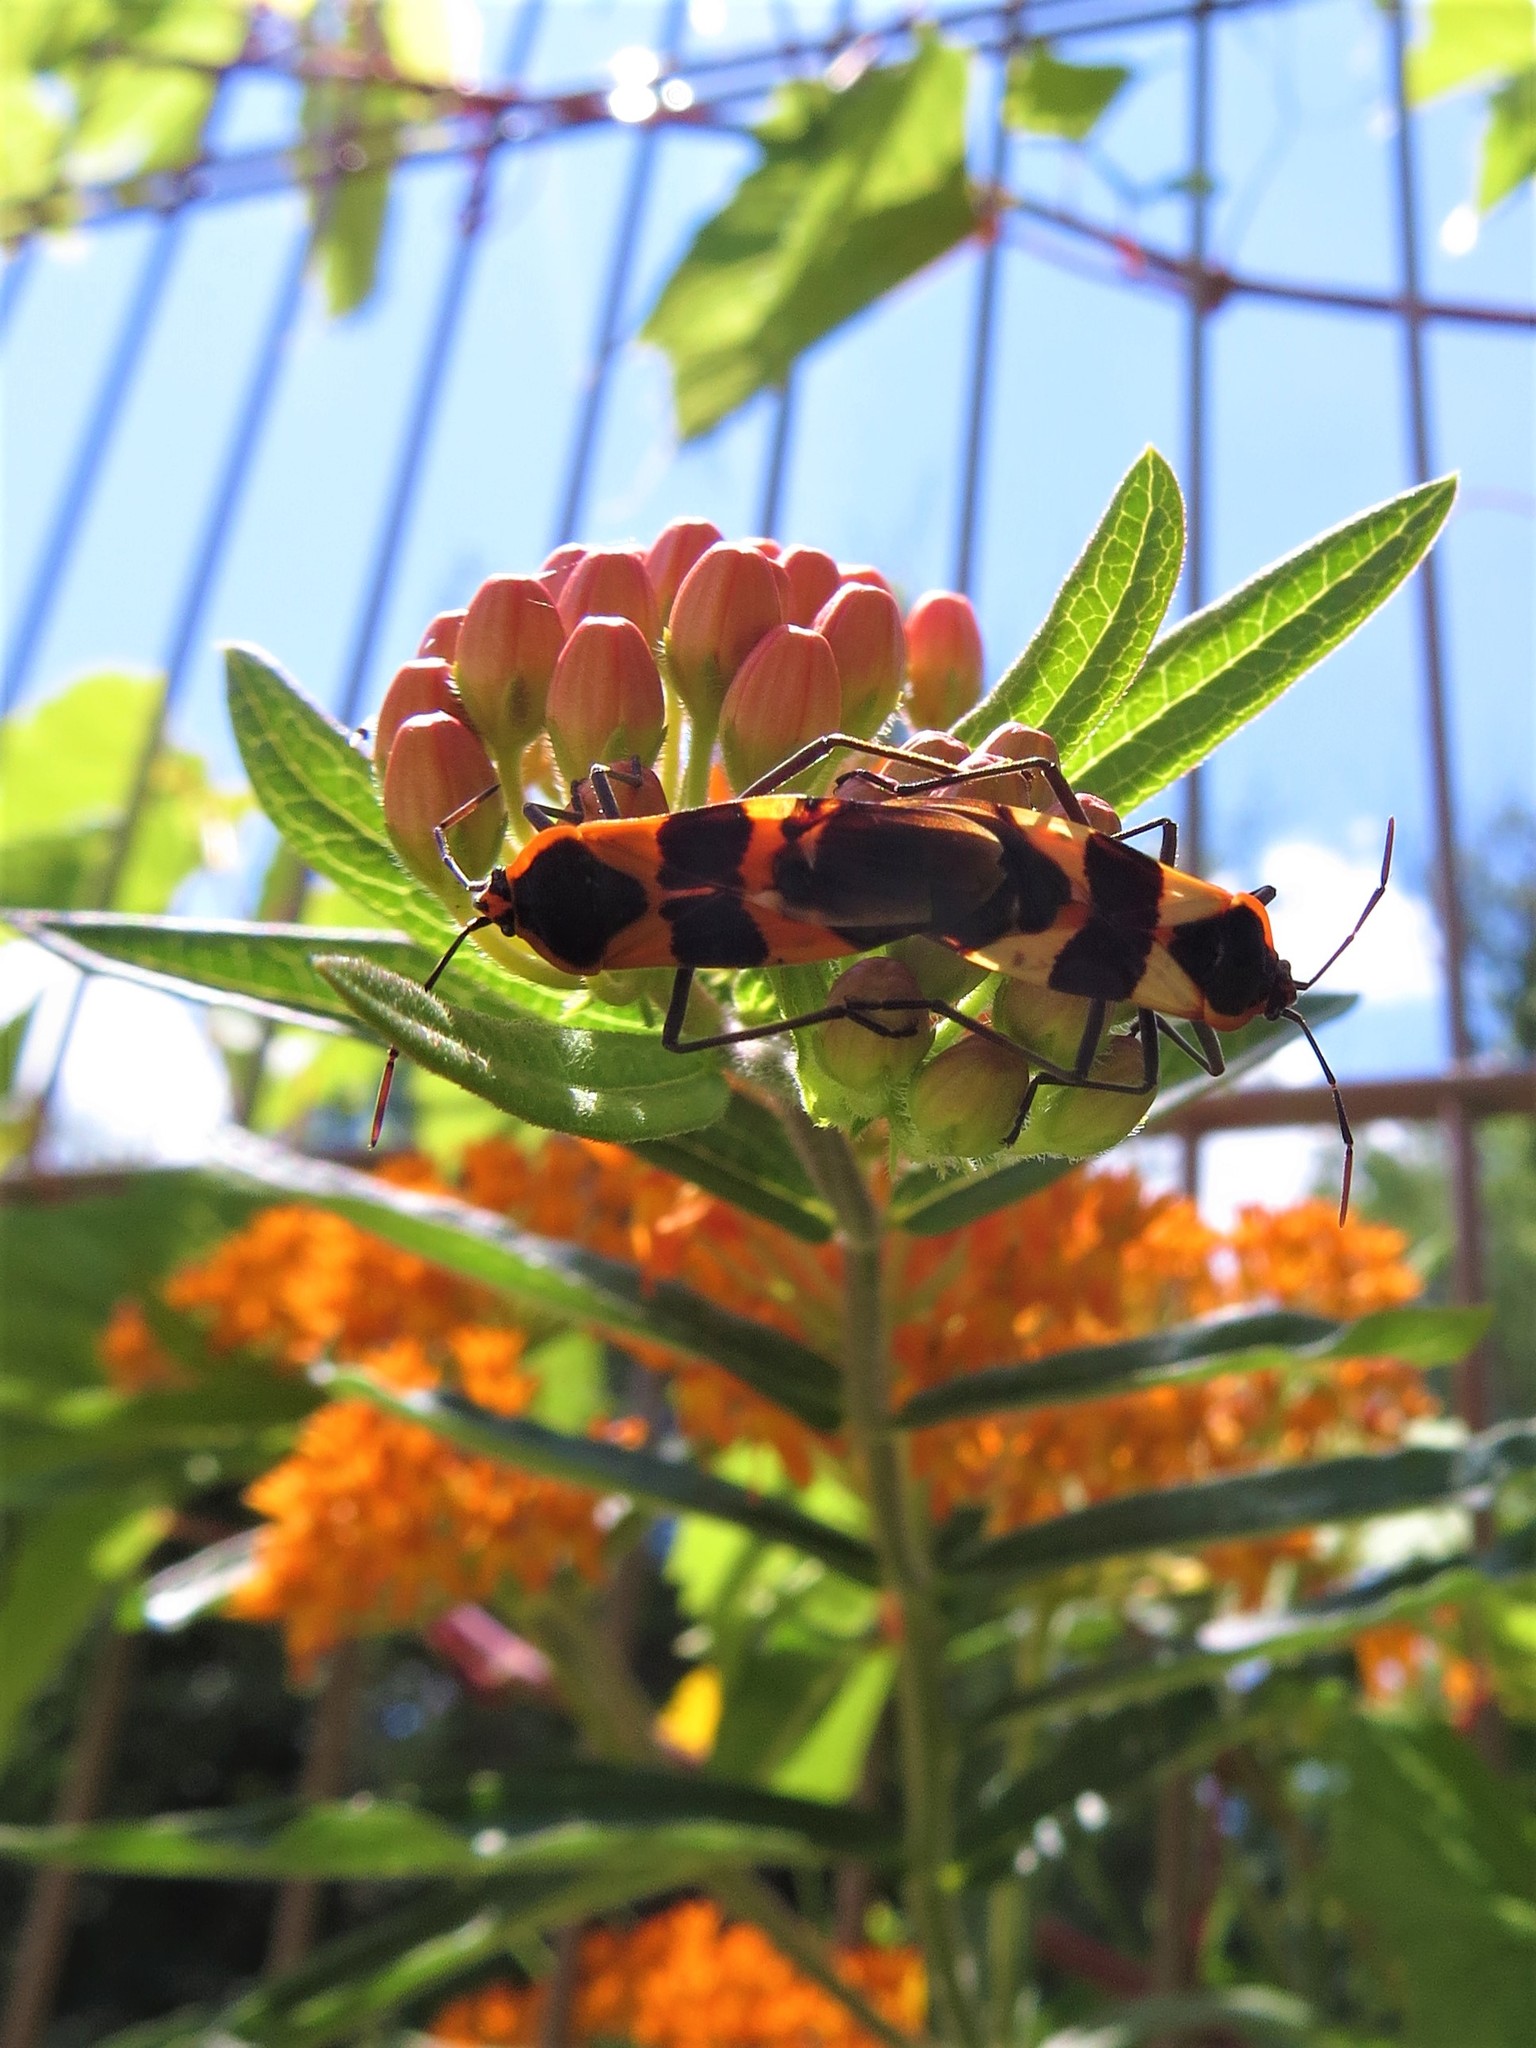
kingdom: Animalia
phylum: Arthropoda
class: Insecta
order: Hemiptera
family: Lygaeidae
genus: Oncopeltus
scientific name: Oncopeltus fasciatus
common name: Large milkweed bug
